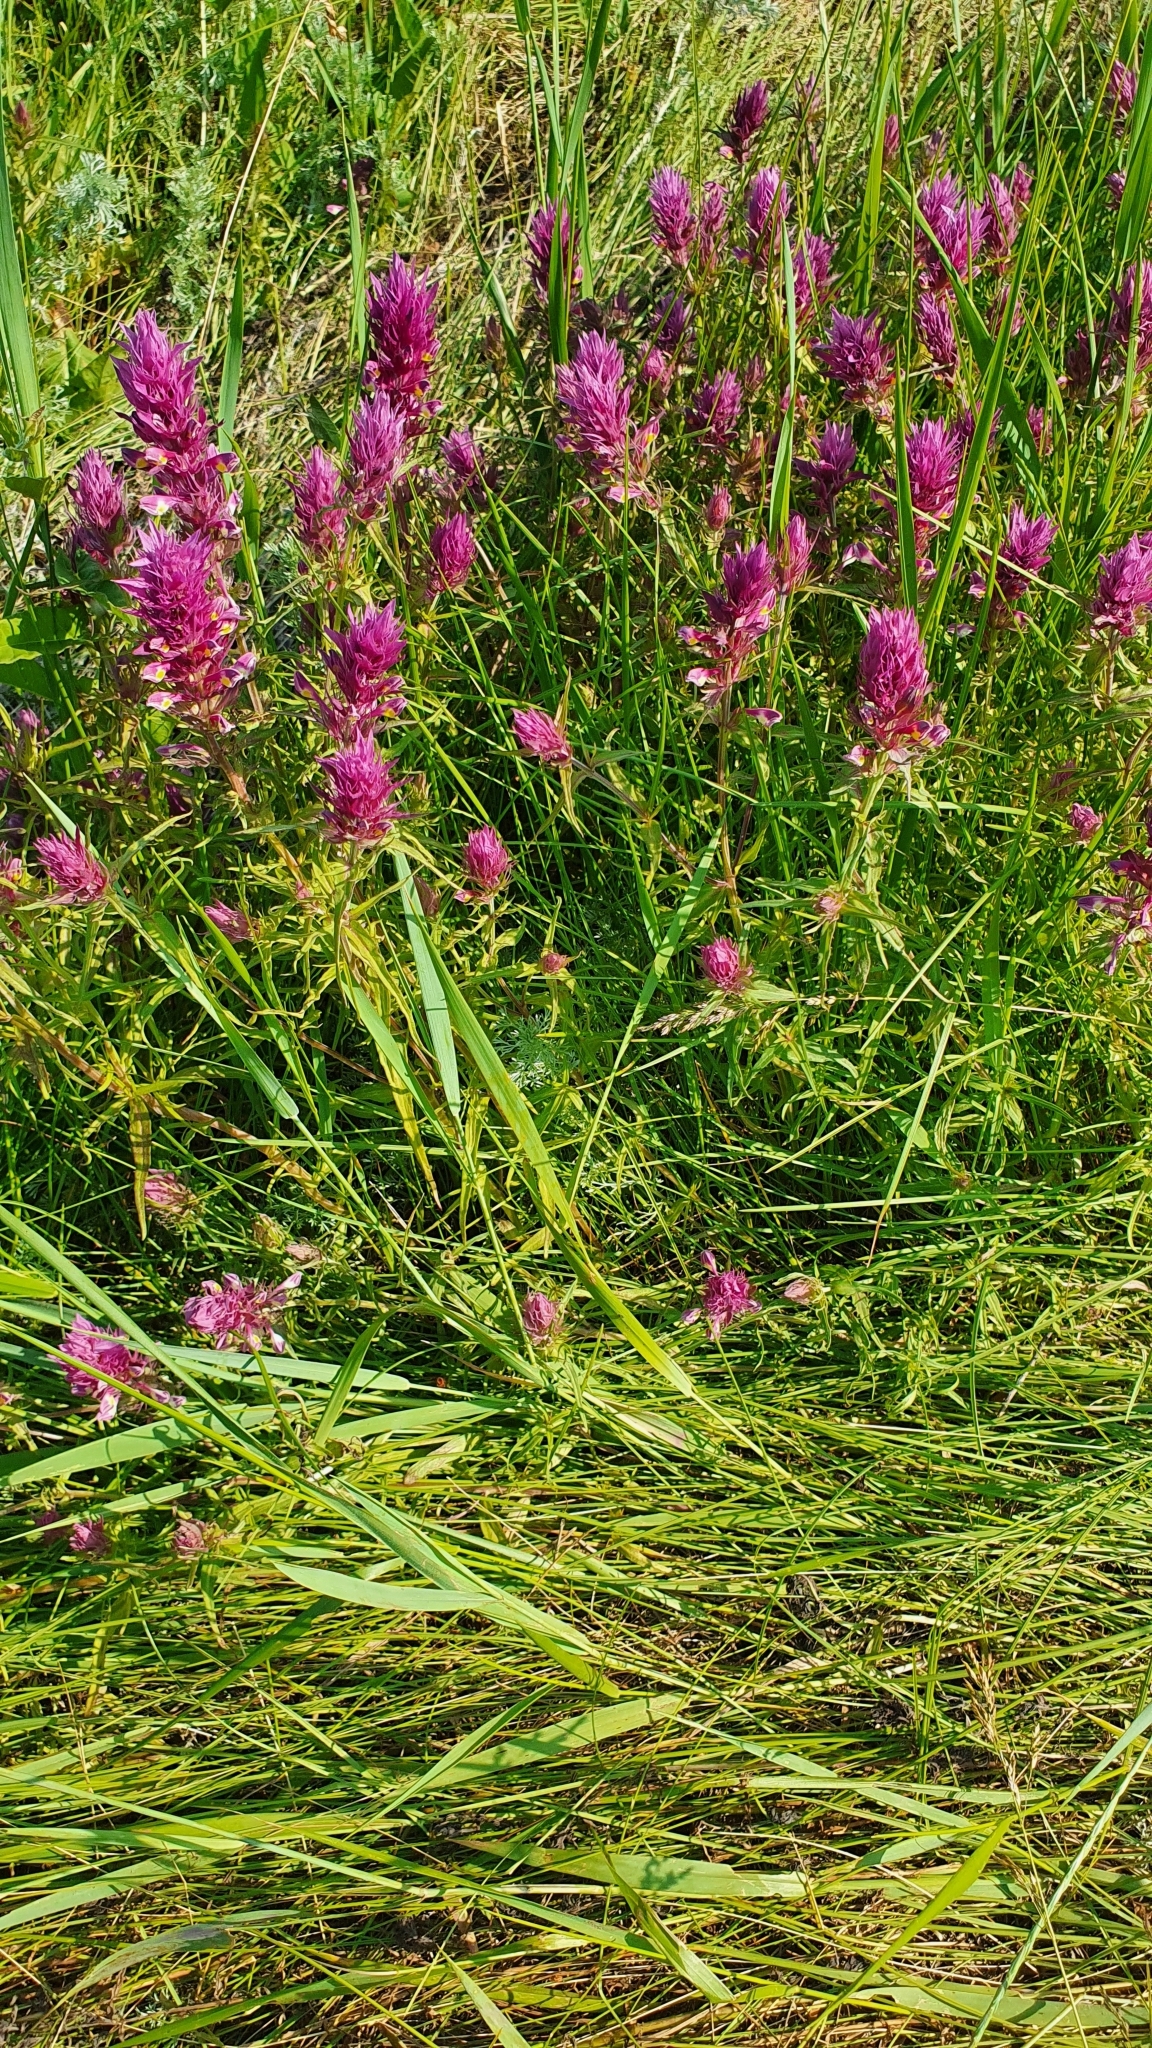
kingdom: Plantae
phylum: Tracheophyta
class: Magnoliopsida
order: Lamiales
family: Orobanchaceae
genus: Melampyrum
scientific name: Melampyrum arvense
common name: Field cow-wheat
